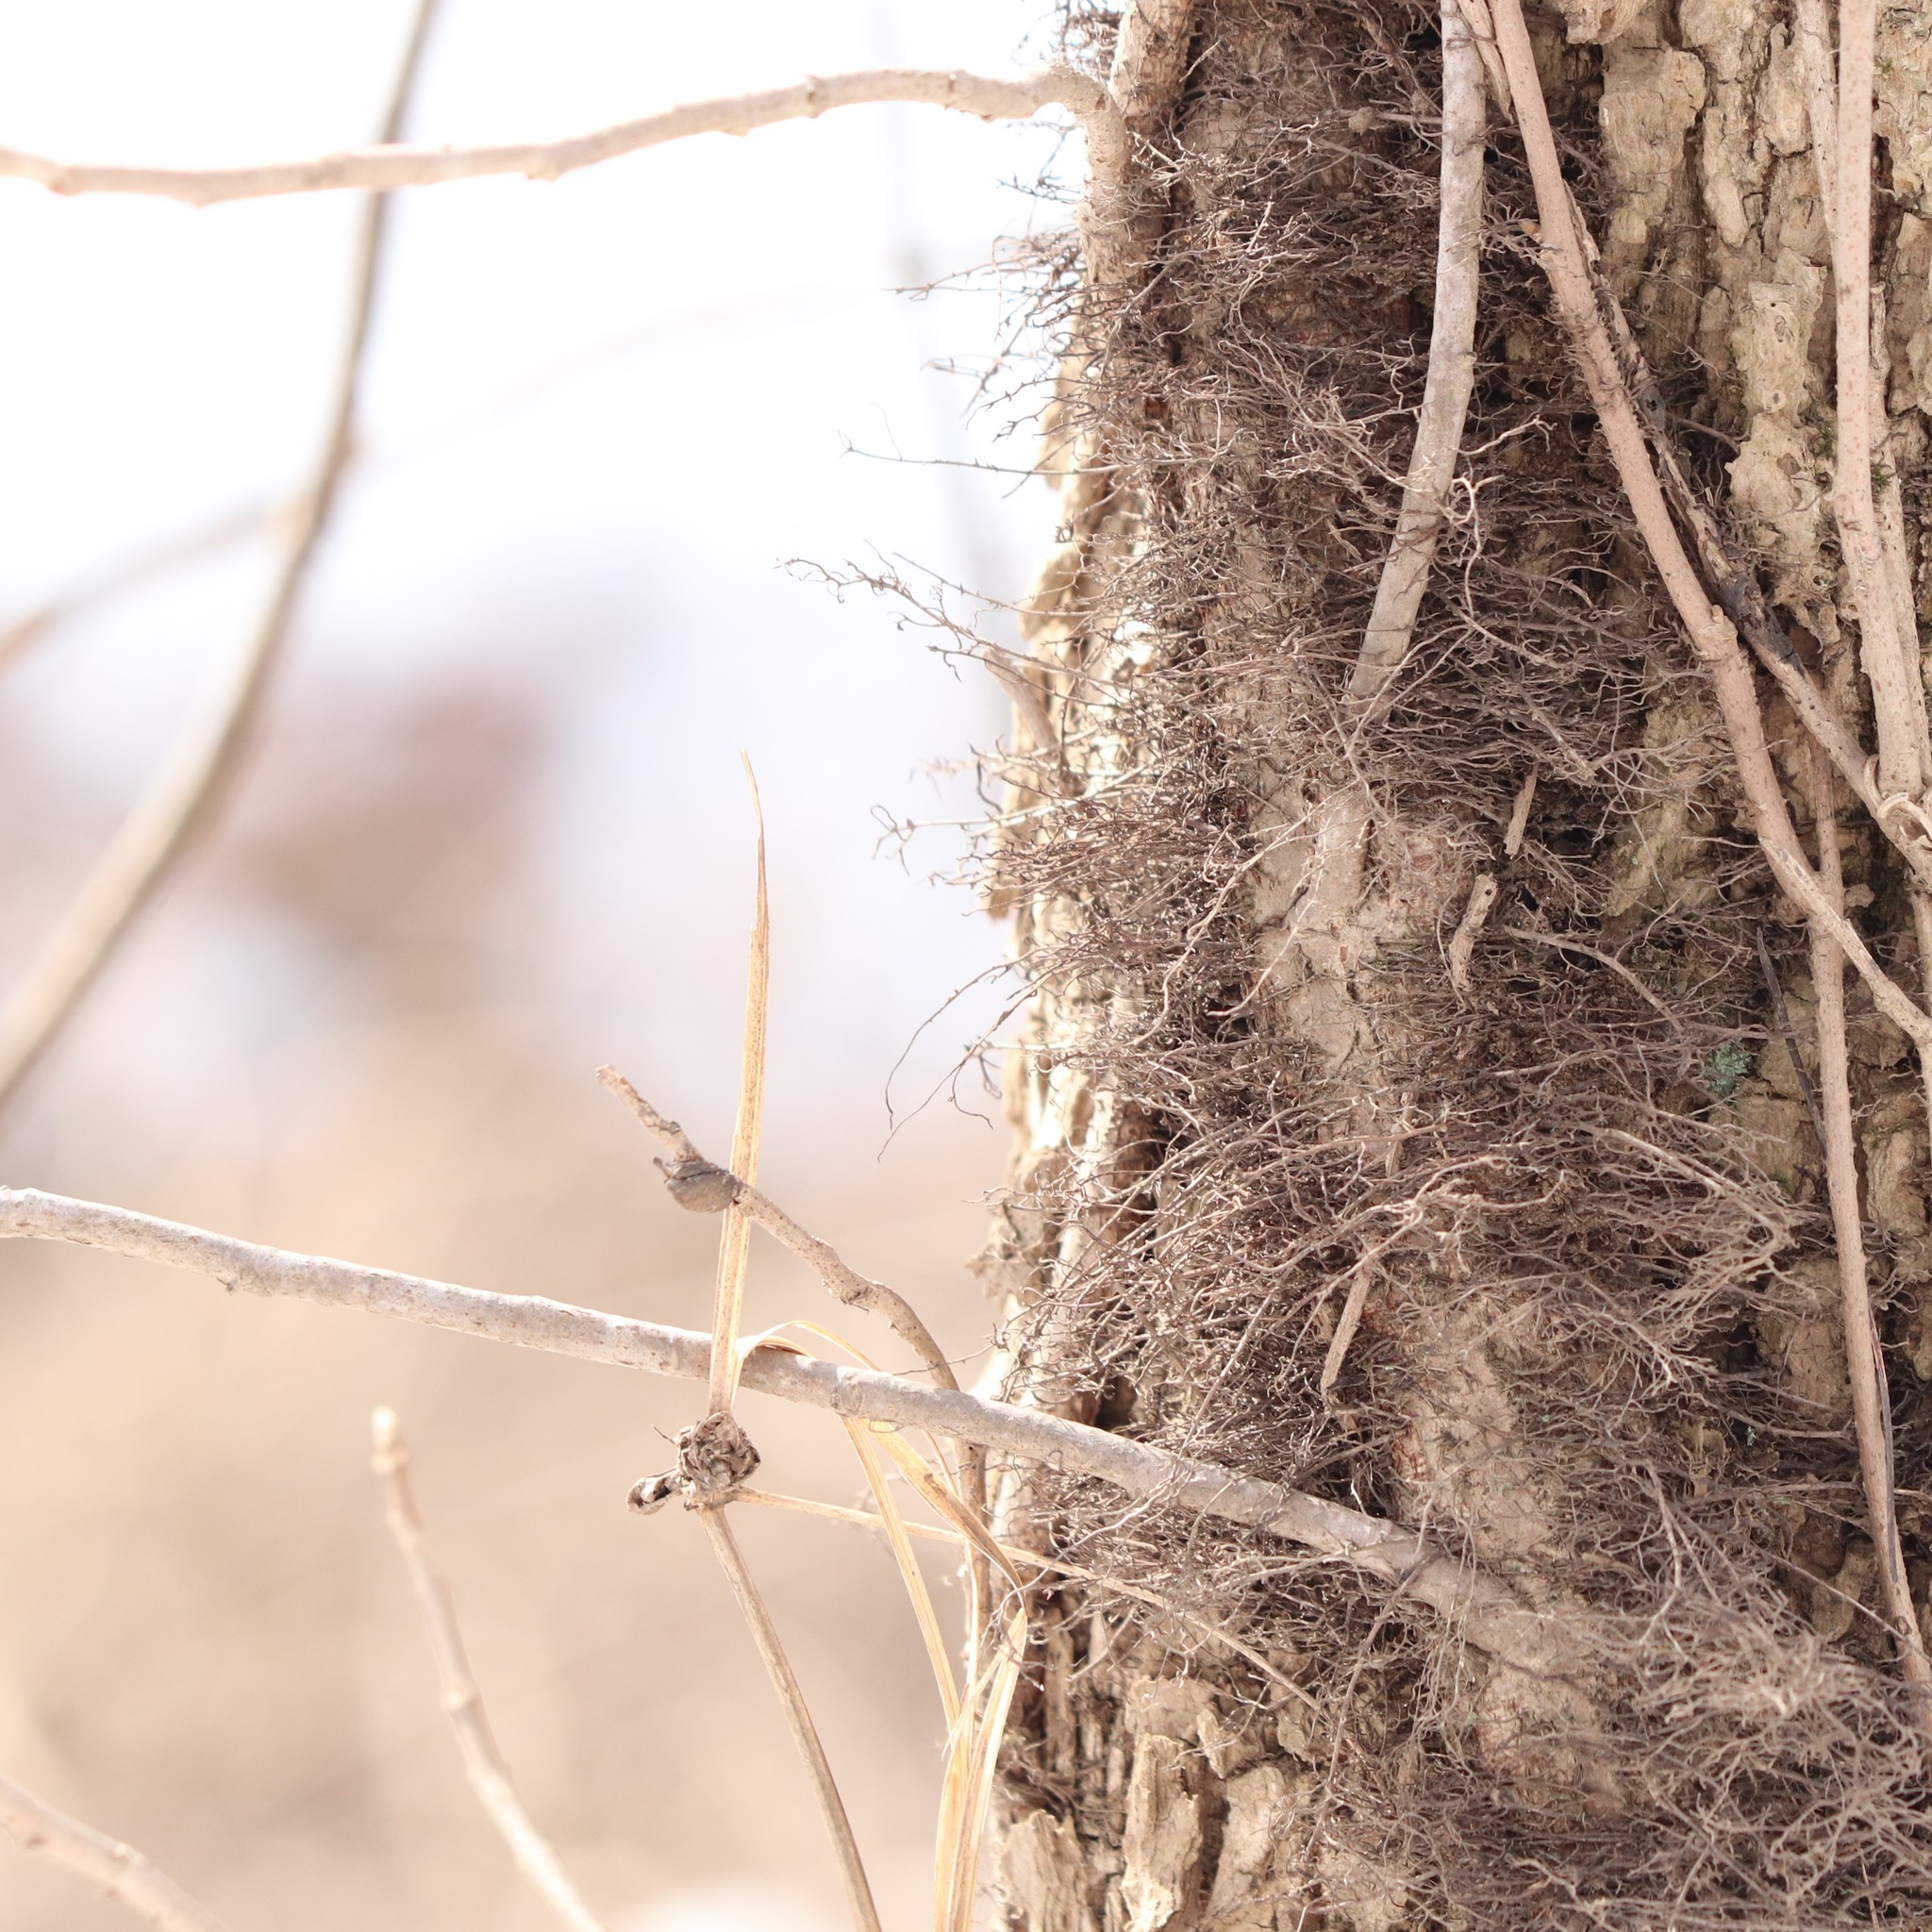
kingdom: Plantae
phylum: Tracheophyta
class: Magnoliopsida
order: Sapindales
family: Anacardiaceae
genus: Toxicodendron
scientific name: Toxicodendron radicans
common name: Poison ivy
